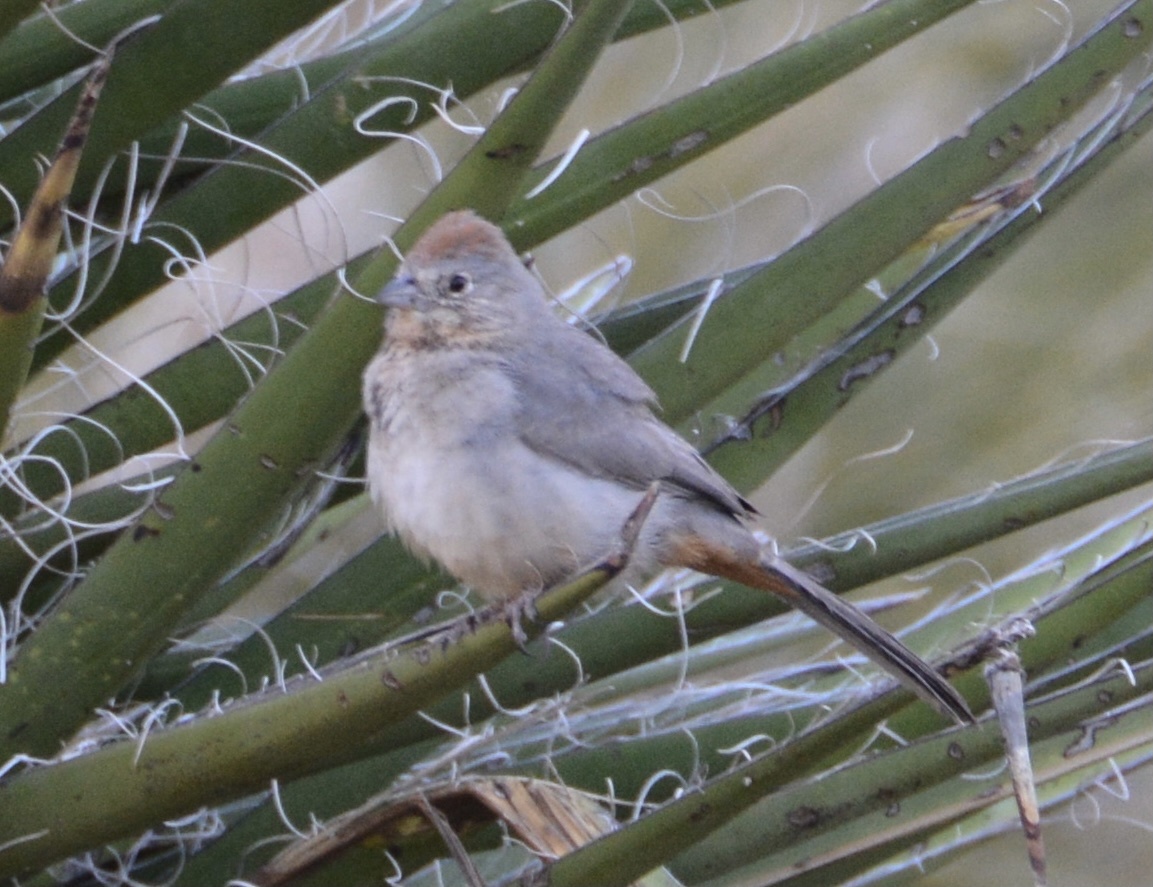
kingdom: Animalia
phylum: Chordata
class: Aves
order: Passeriformes
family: Passerellidae
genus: Melozone
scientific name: Melozone fusca
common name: Canyon towhee
